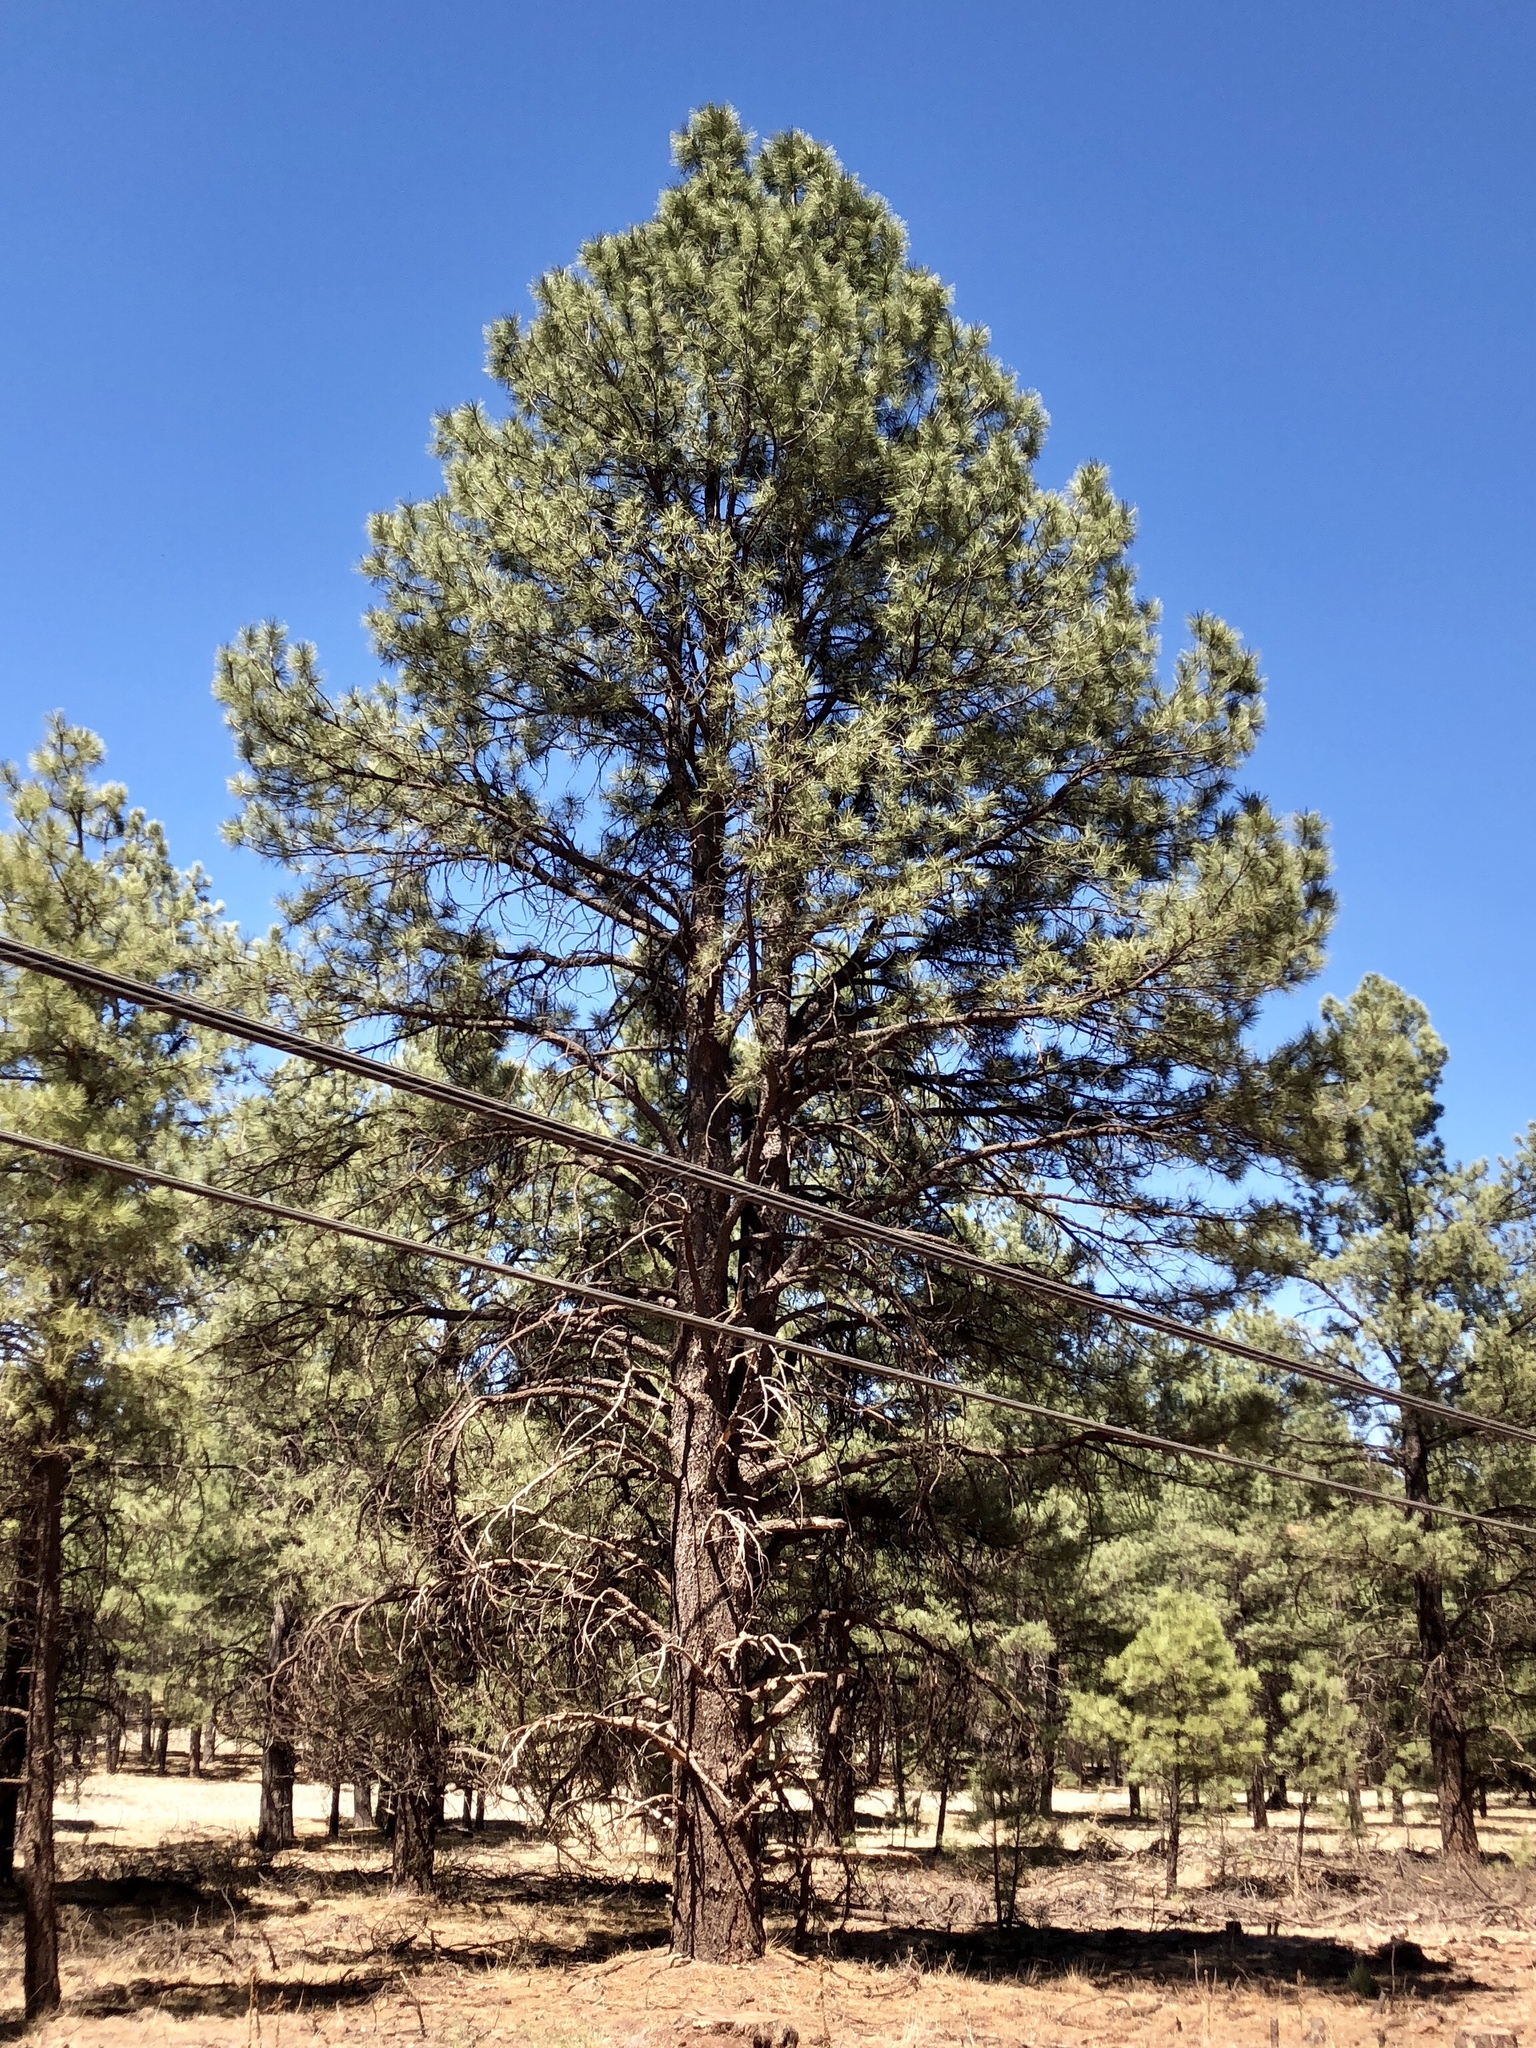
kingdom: Plantae
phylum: Tracheophyta
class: Pinopsida
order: Pinales
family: Pinaceae
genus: Pinus
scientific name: Pinus ponderosa
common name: Western yellow-pine
